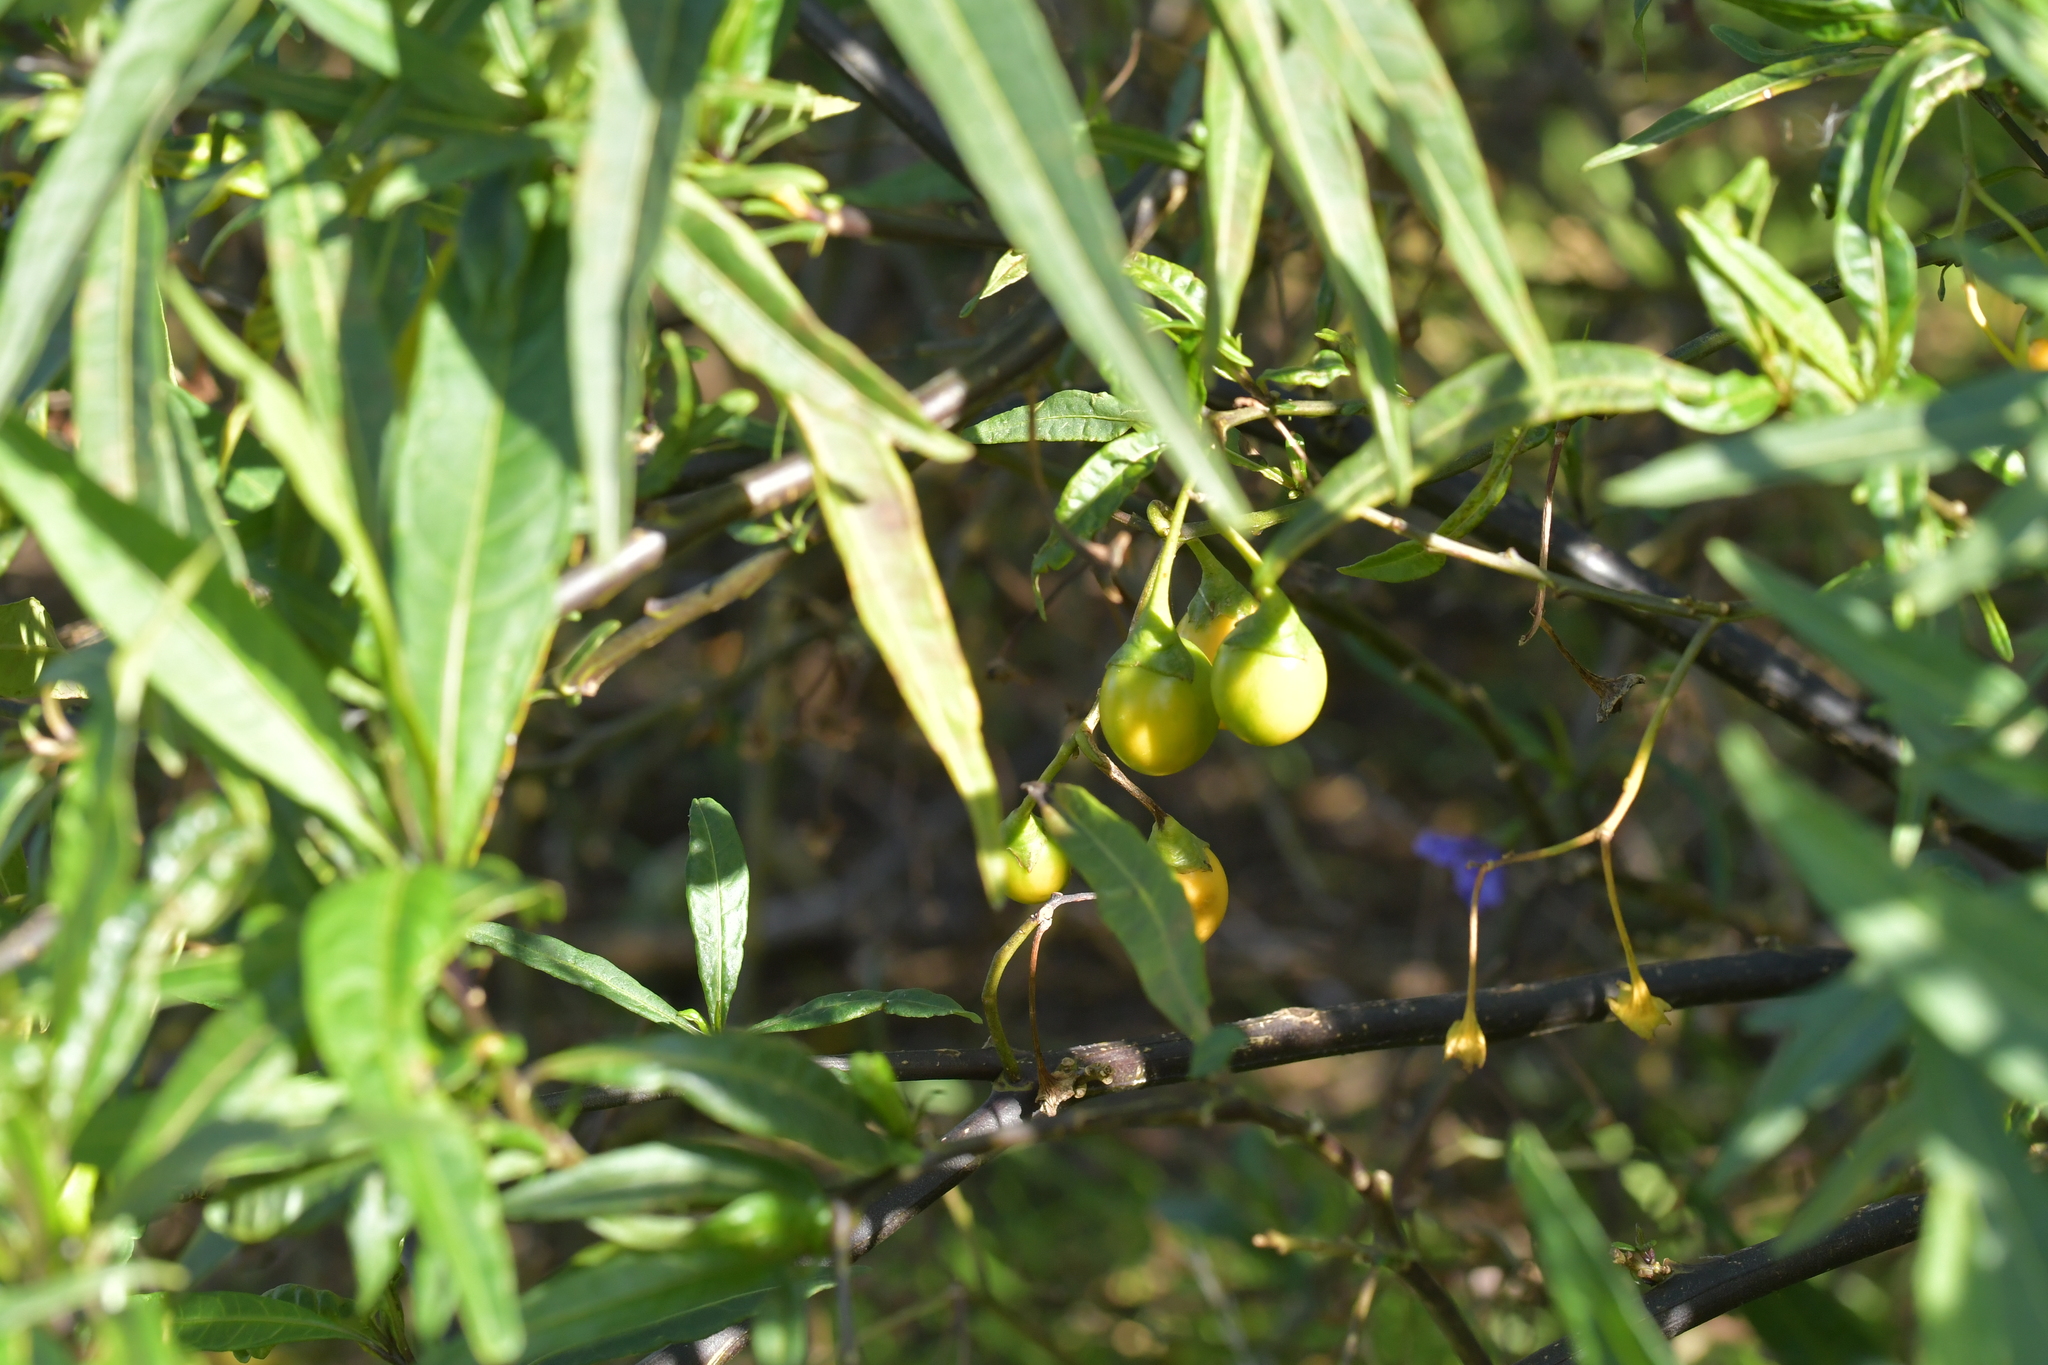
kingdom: Plantae
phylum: Tracheophyta
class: Magnoliopsida
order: Solanales
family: Solanaceae
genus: Solanum
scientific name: Solanum laciniatum
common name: Kangaroo-apple
